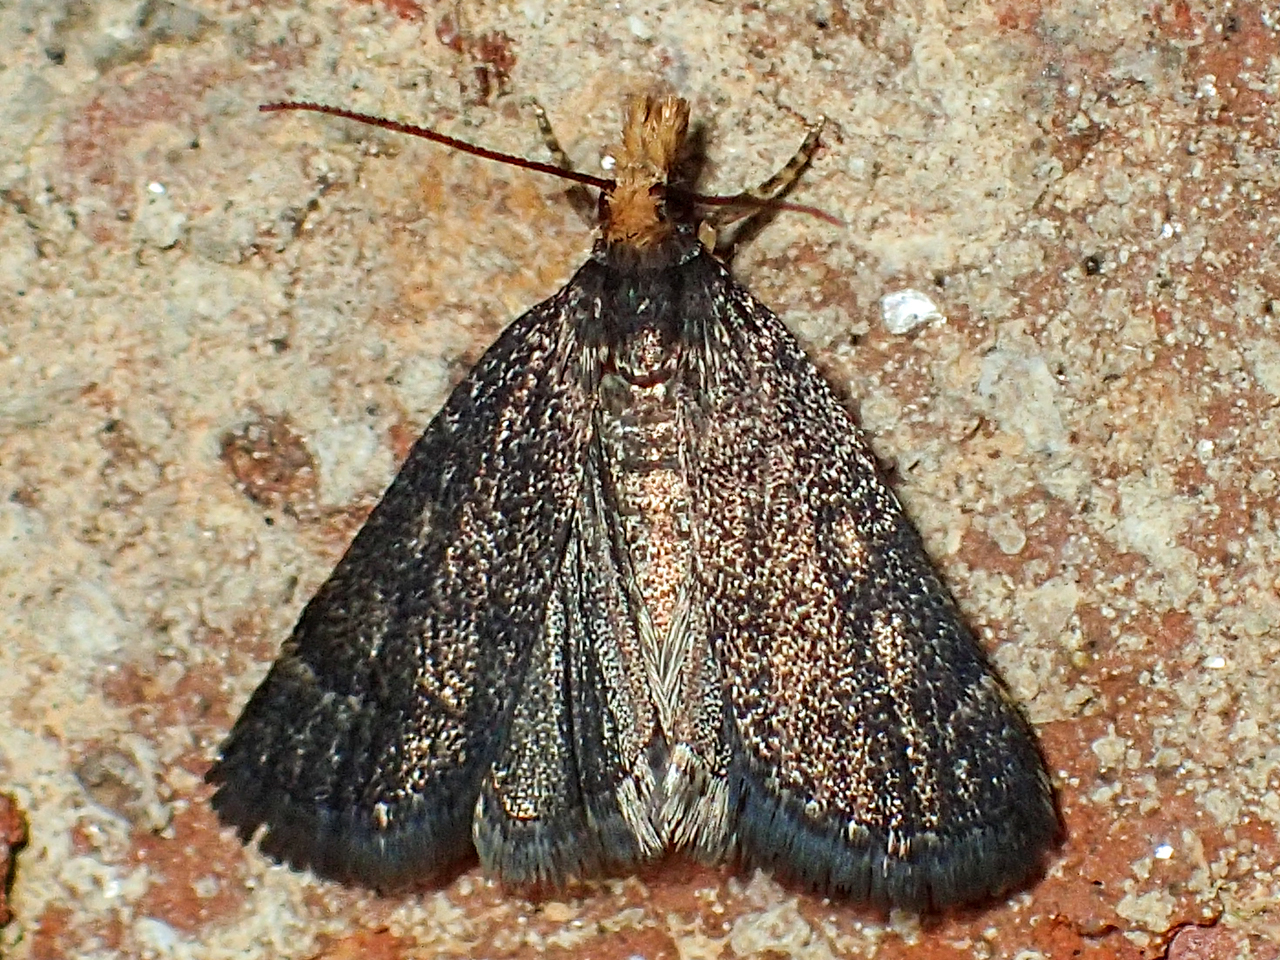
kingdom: Animalia
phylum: Arthropoda
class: Insecta
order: Lepidoptera
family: Crambidae
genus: Pyrausta
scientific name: Pyrausta merrickalis
